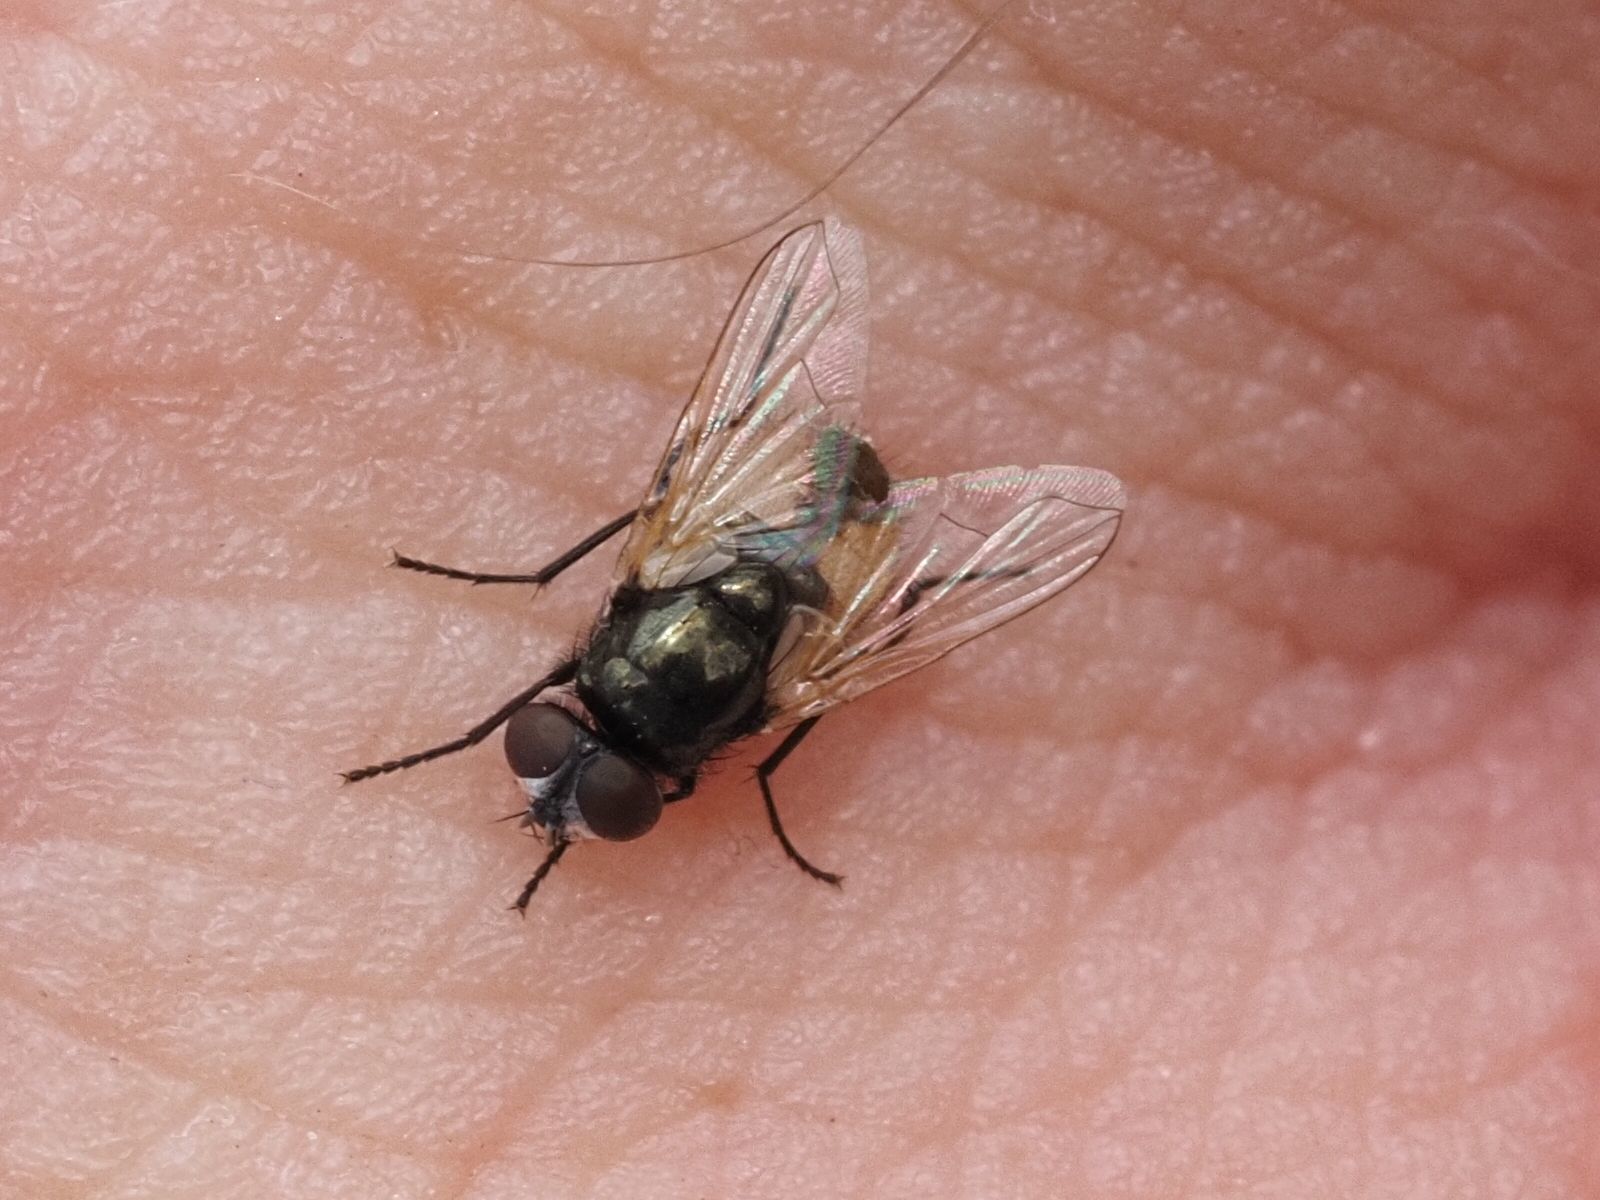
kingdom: Animalia
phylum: Arthropoda
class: Insecta
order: Diptera
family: Muscidae
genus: Musca
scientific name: Musca osiris
